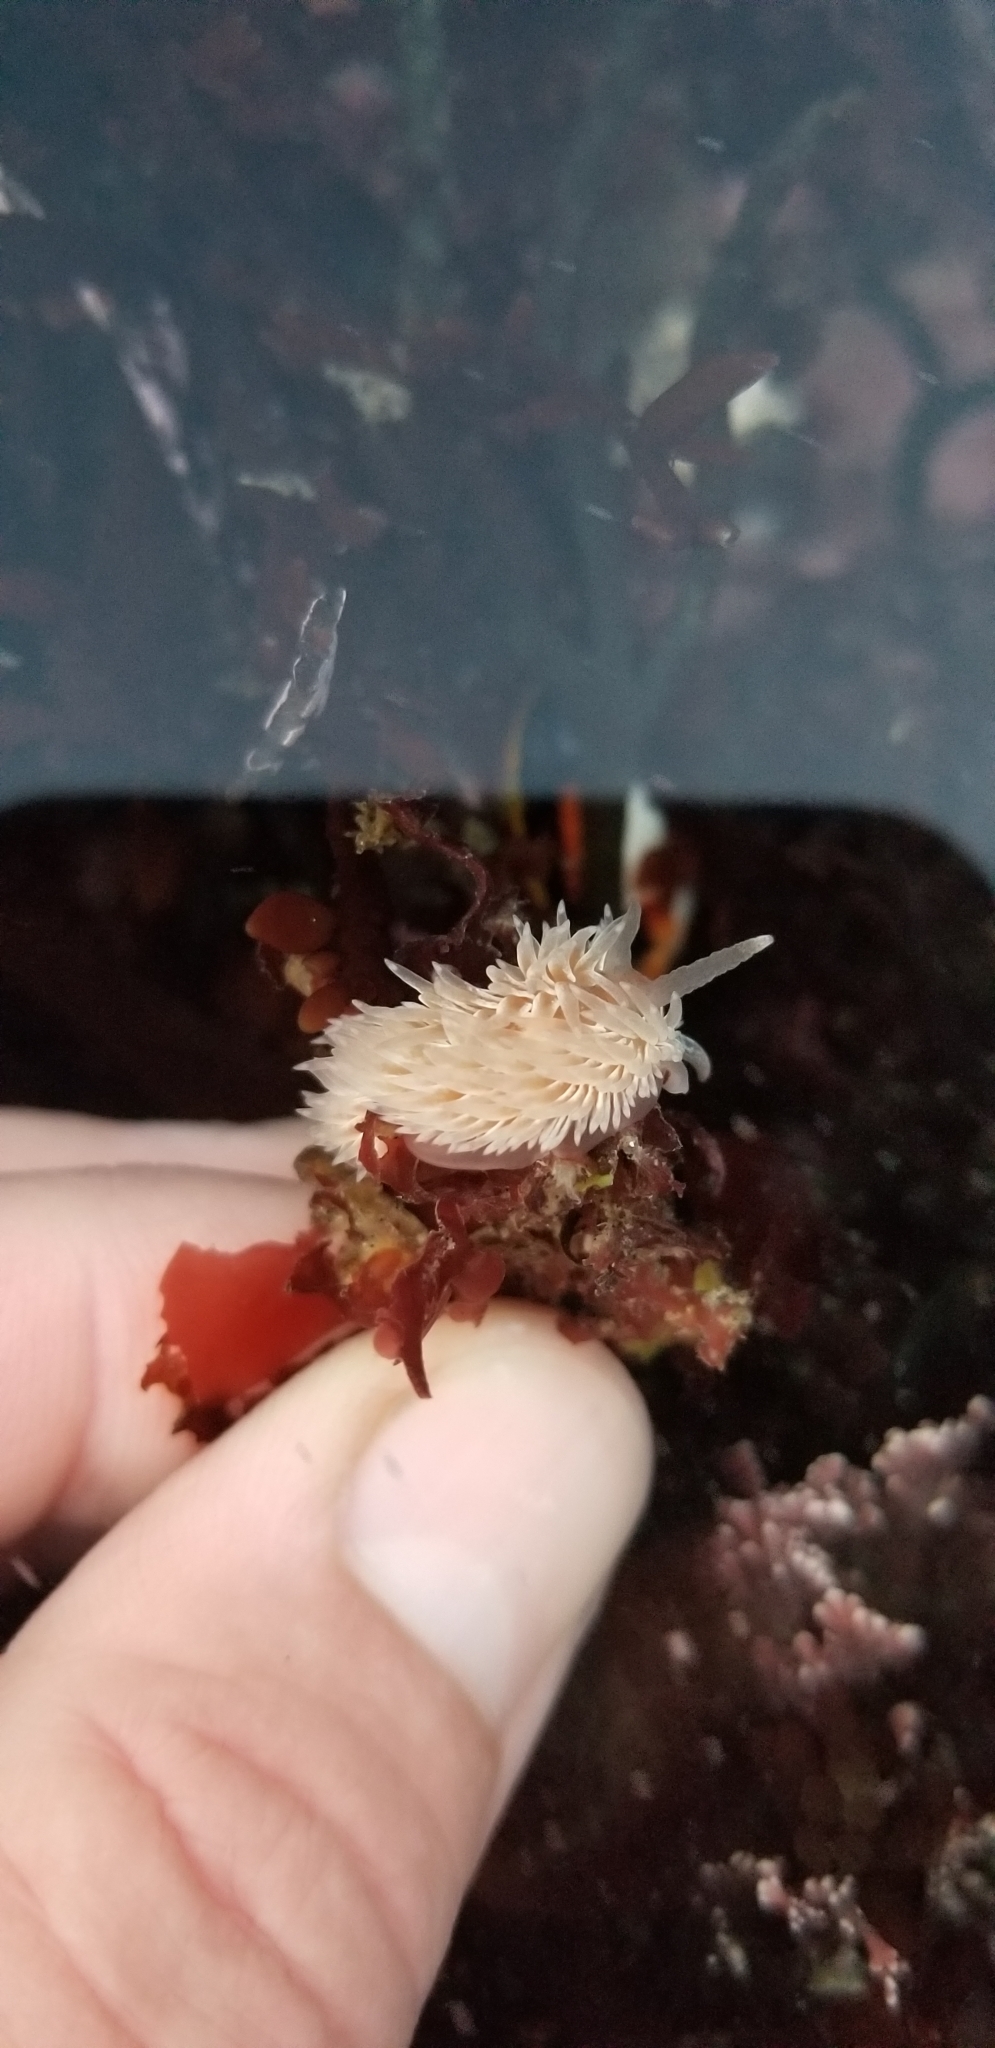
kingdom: Animalia
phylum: Mollusca
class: Gastropoda
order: Nudibranchia
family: Aeolidiidae
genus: Aeolidia
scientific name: Aeolidia loui
